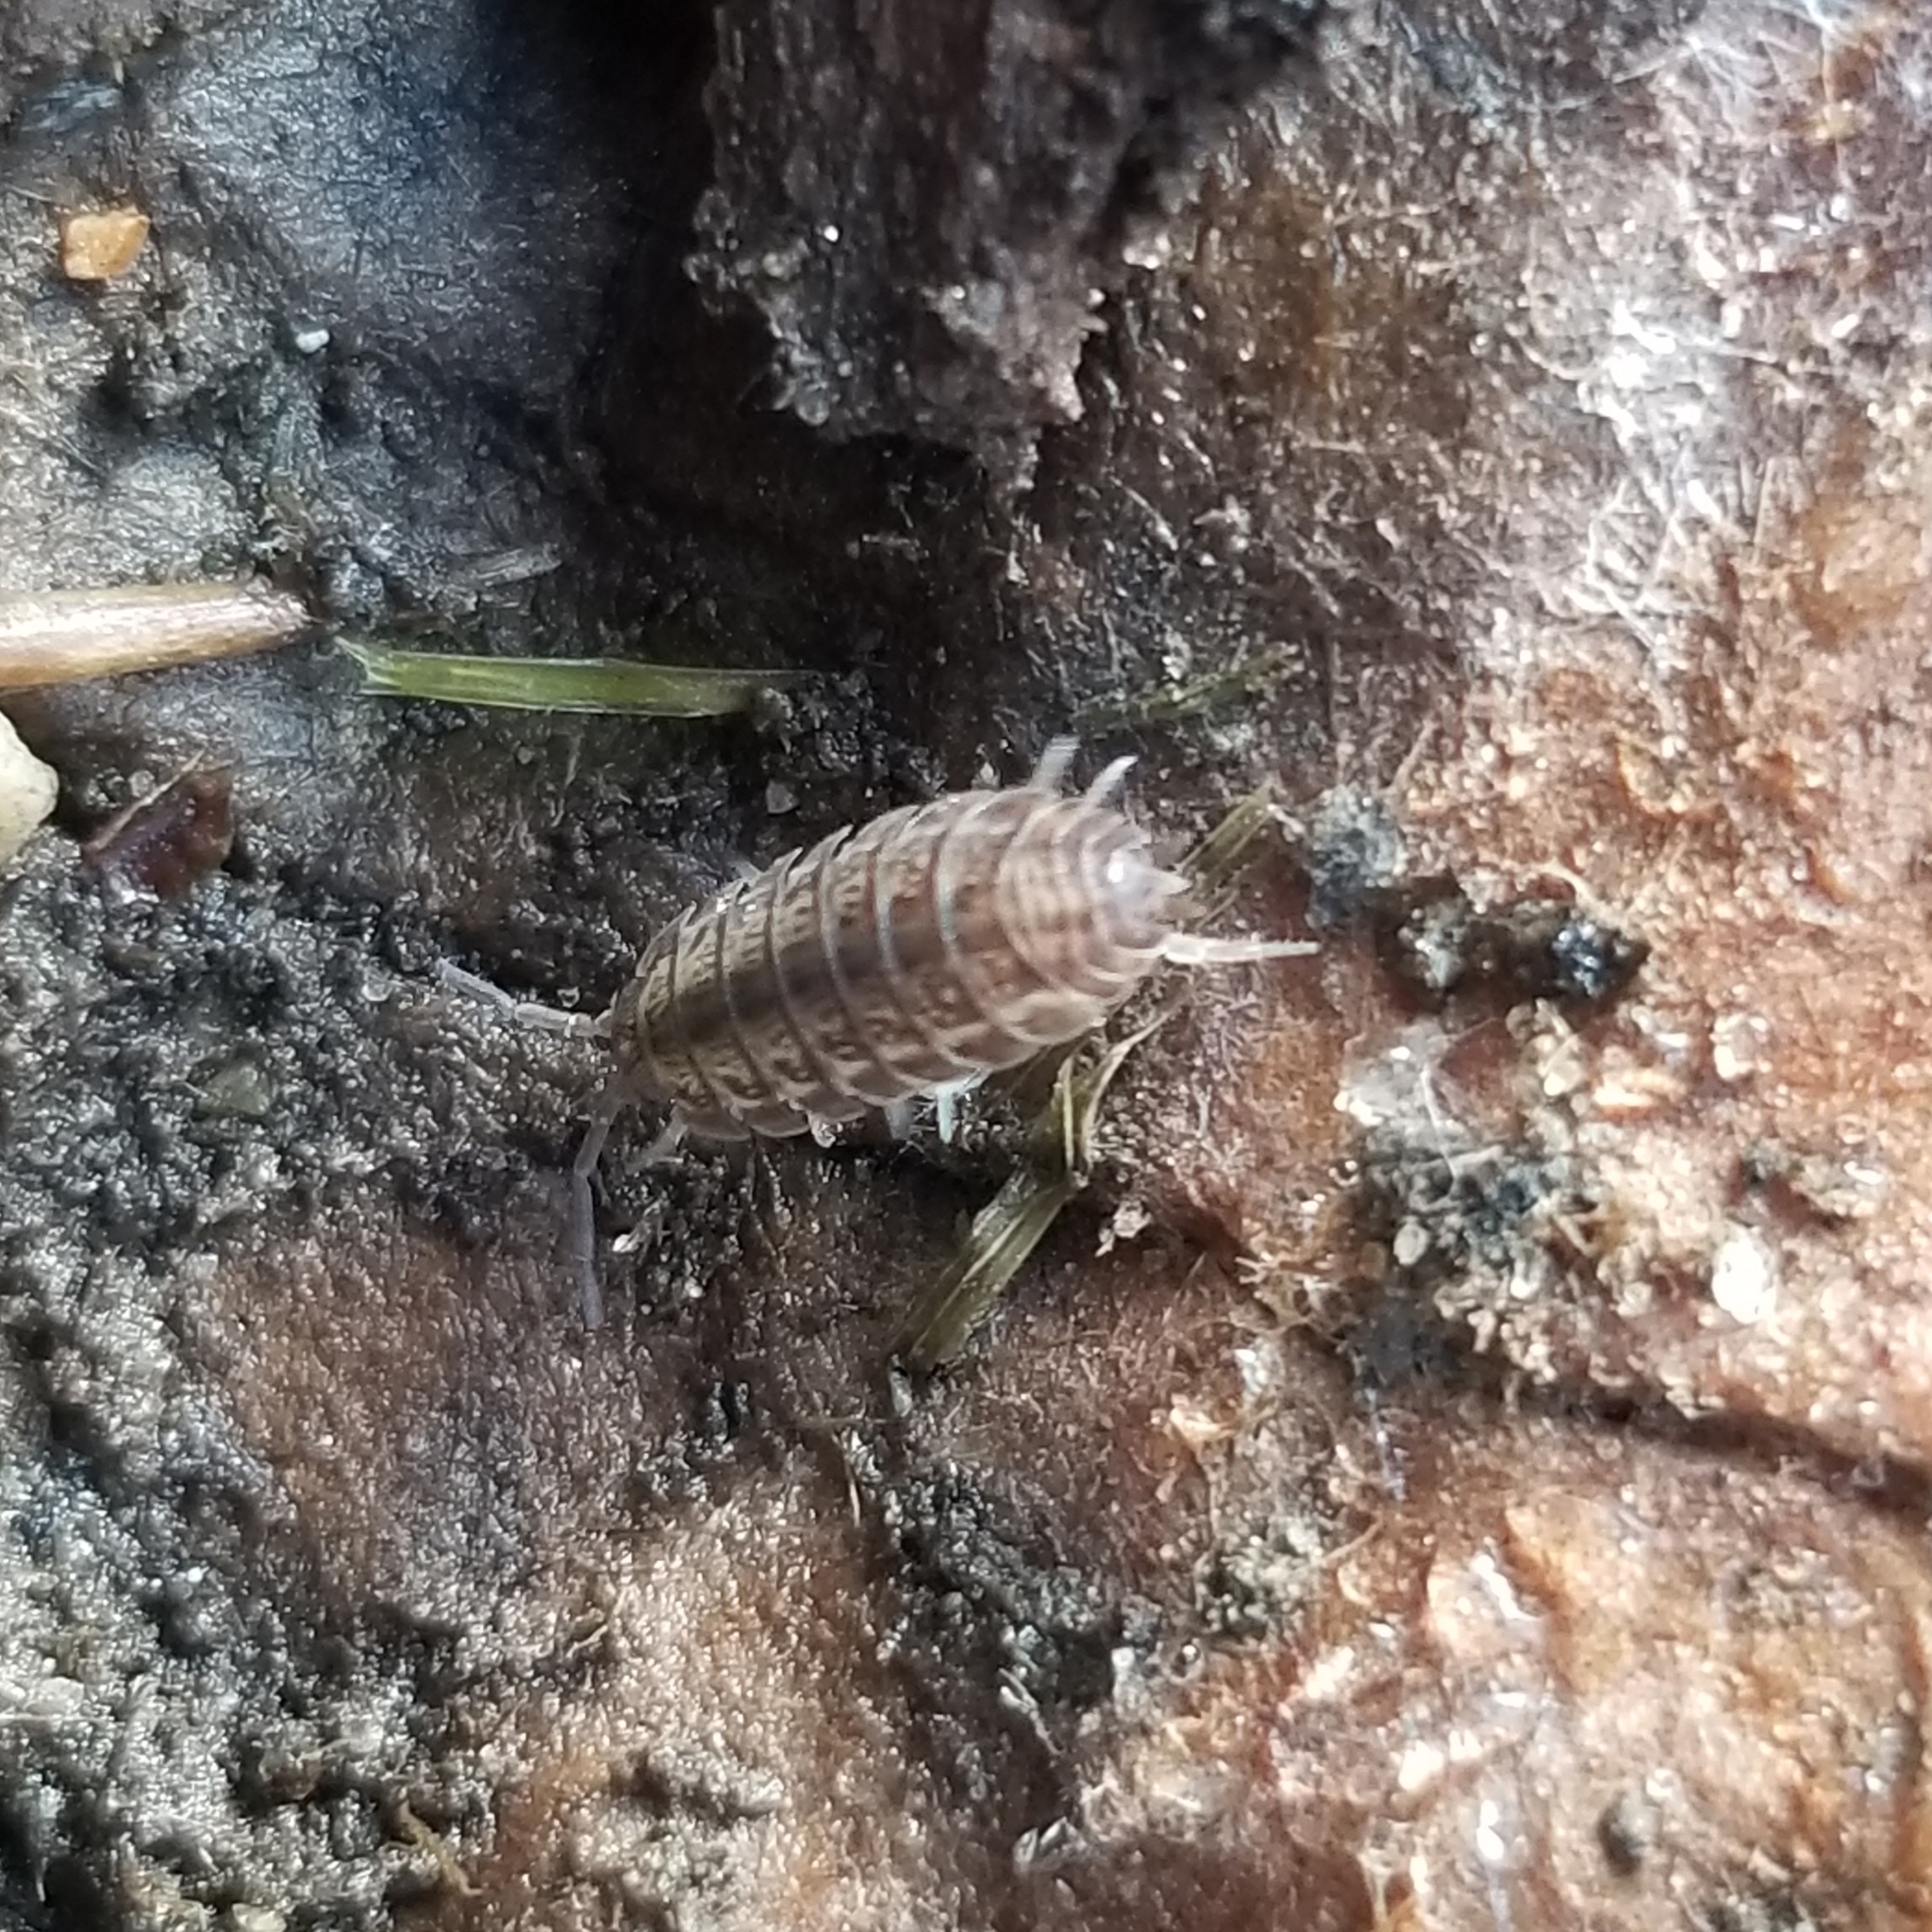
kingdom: Animalia
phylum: Arthropoda
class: Malacostraca
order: Isopoda
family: Trachelipodidae
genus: Trachelipus
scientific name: Trachelipus rathkii
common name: Isopod
